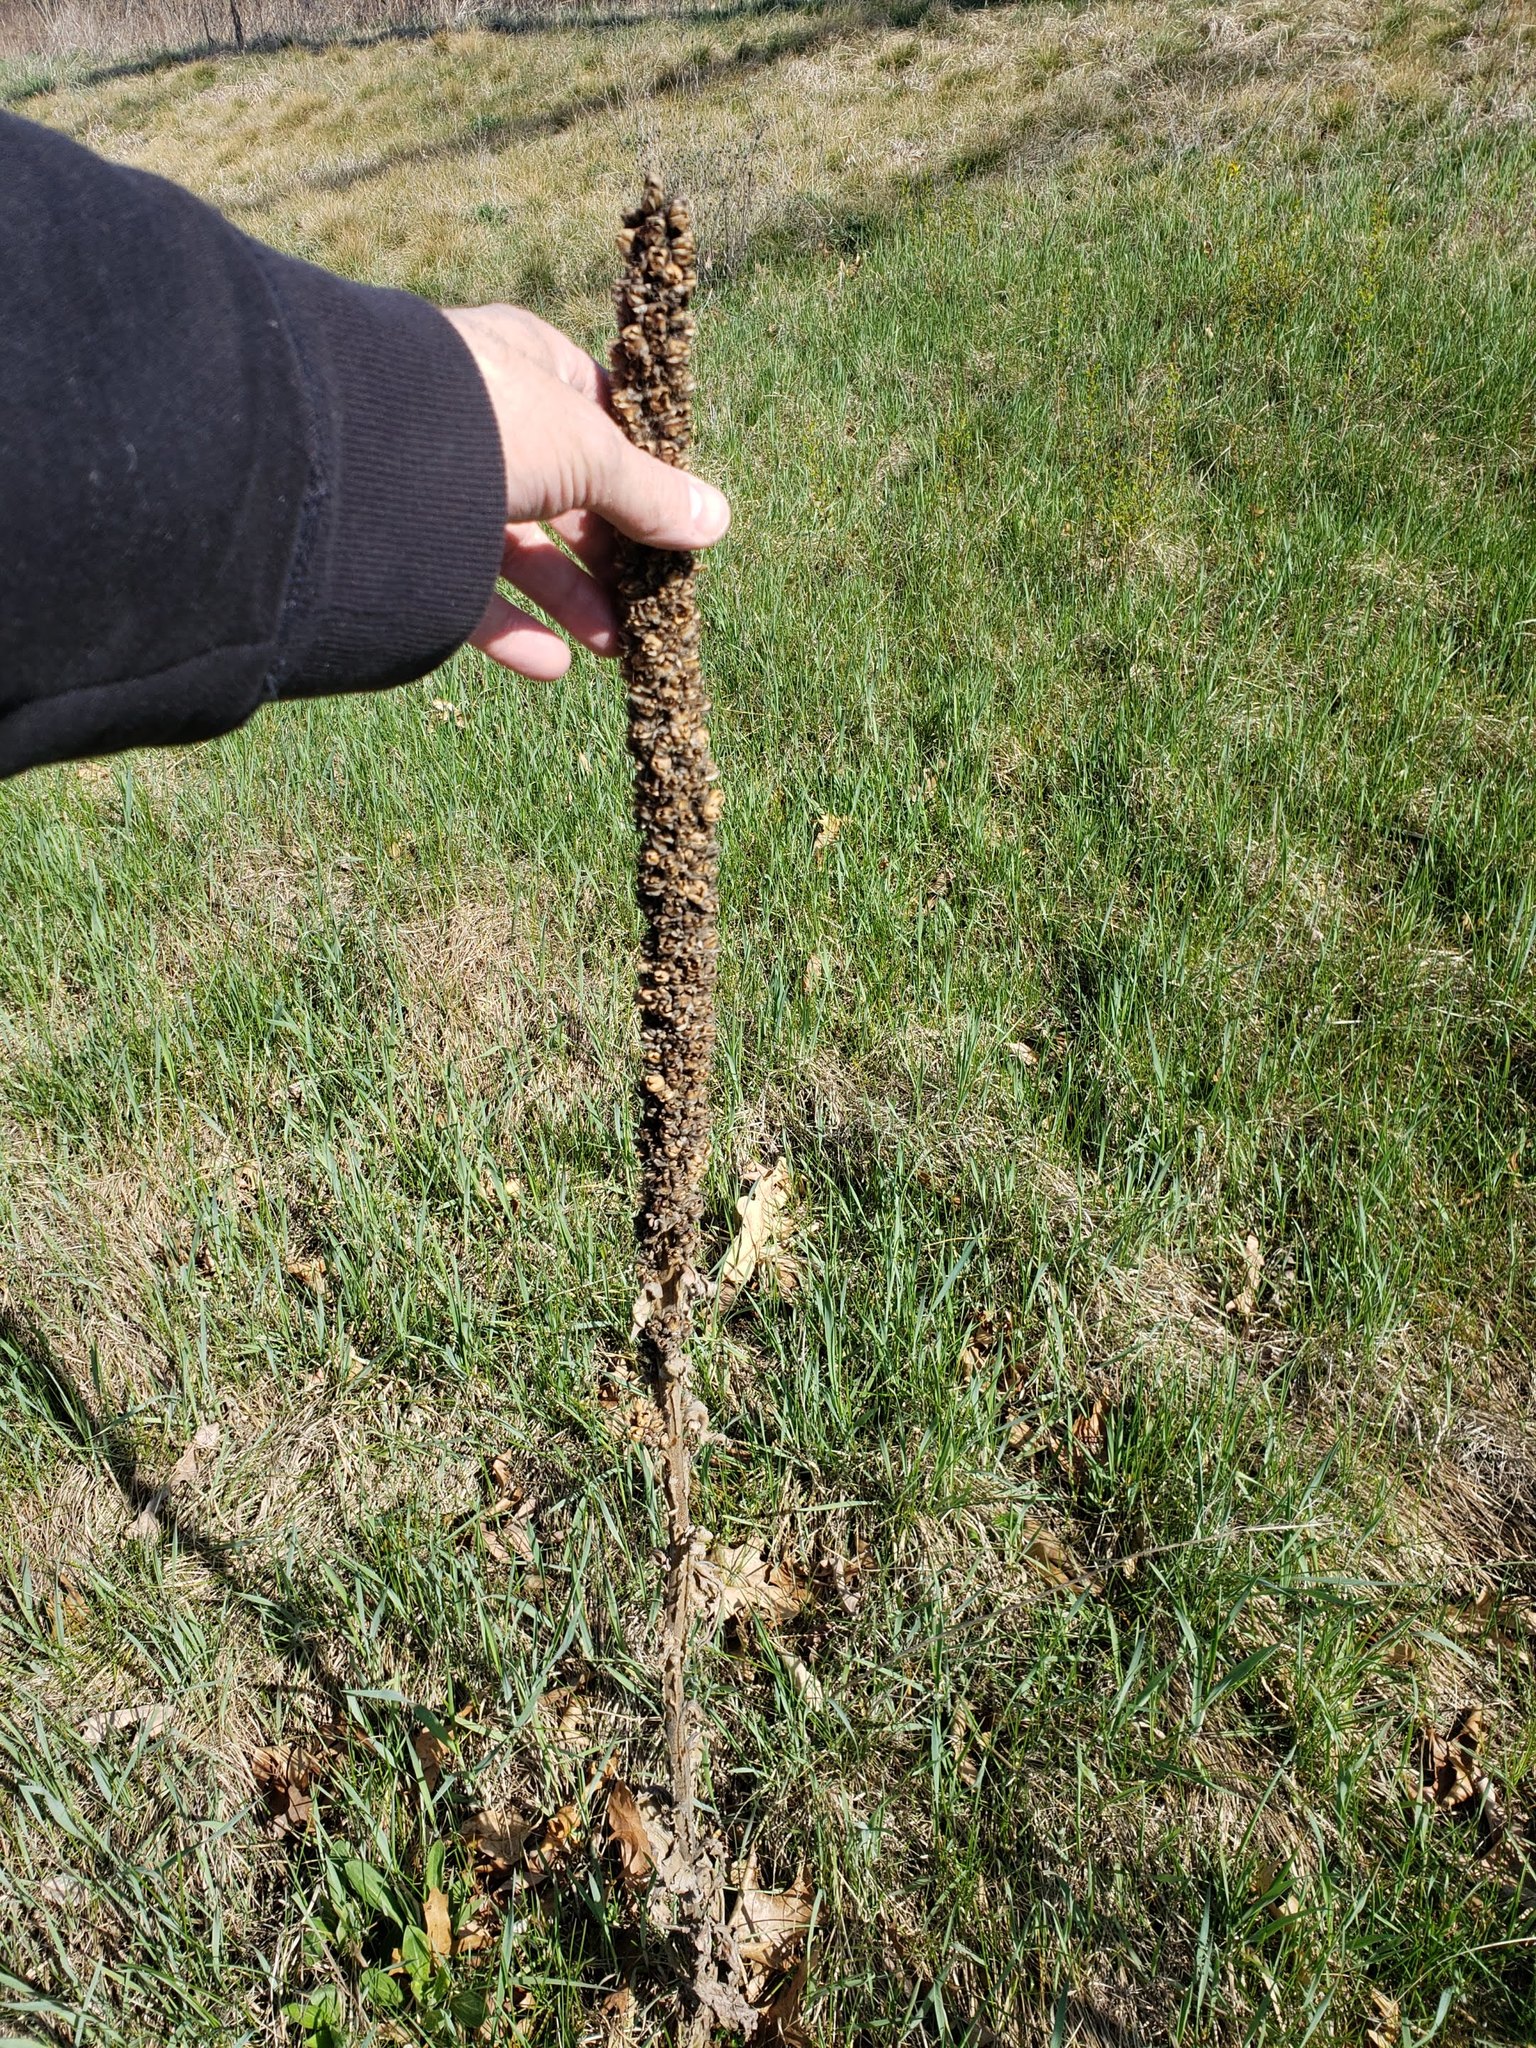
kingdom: Plantae
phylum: Tracheophyta
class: Magnoliopsida
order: Lamiales
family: Scrophulariaceae
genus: Verbascum
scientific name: Verbascum thapsus
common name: Common mullein
